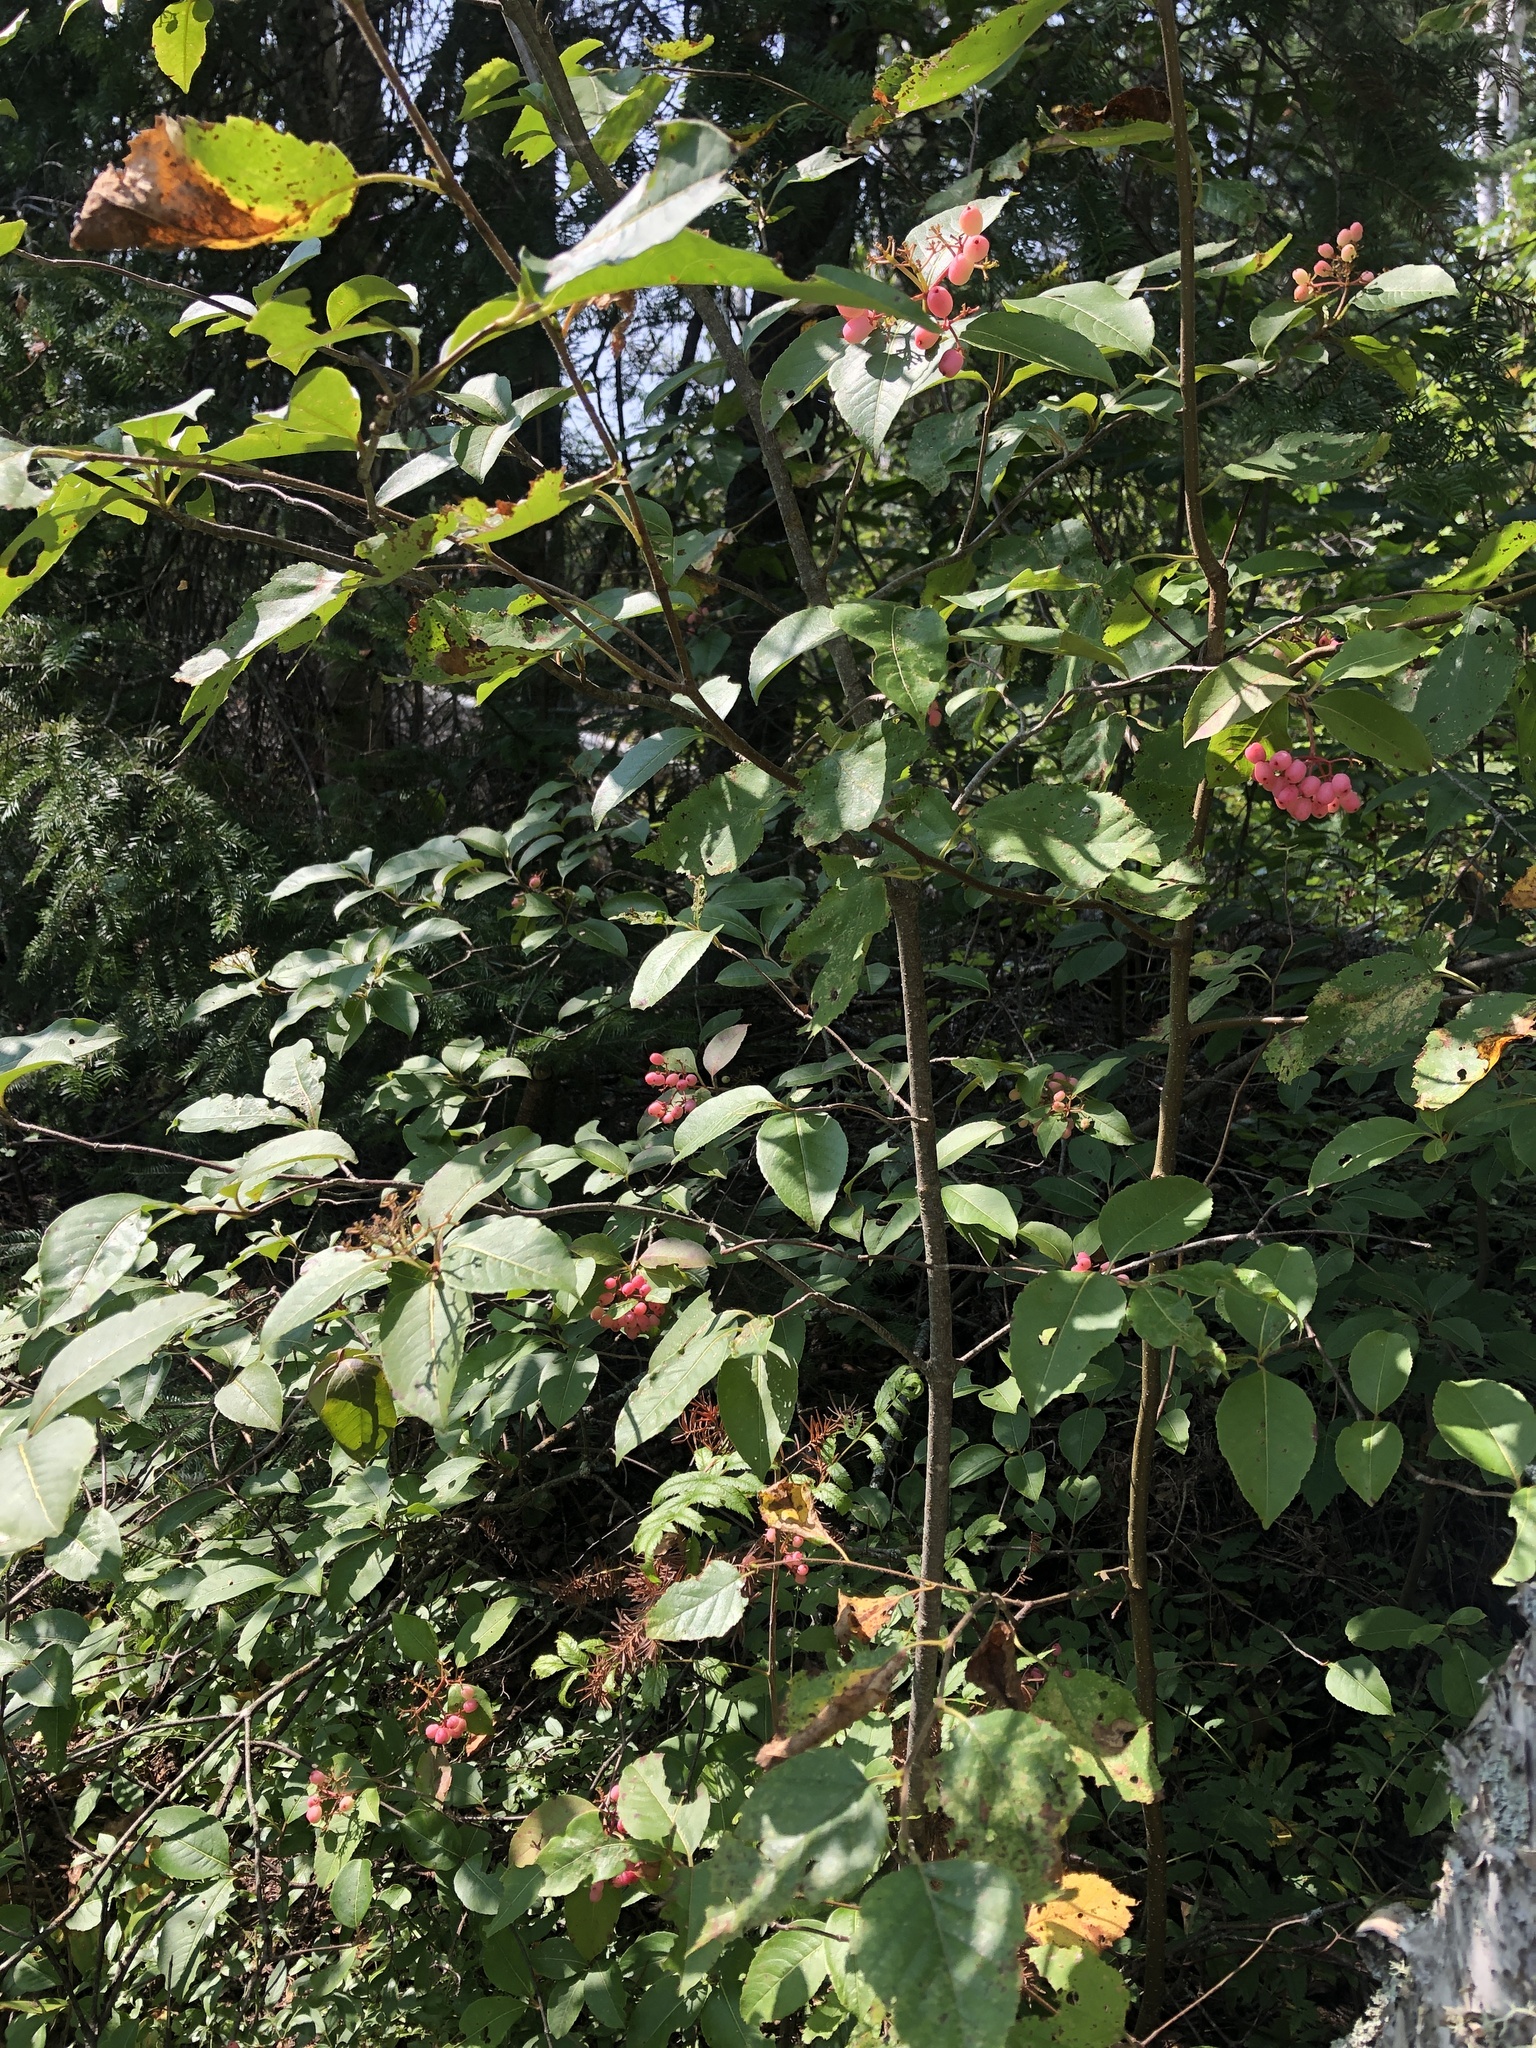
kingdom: Plantae
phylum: Tracheophyta
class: Magnoliopsida
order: Dipsacales
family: Viburnaceae
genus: Viburnum
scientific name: Viburnum cassinoides
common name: Swamp haw
